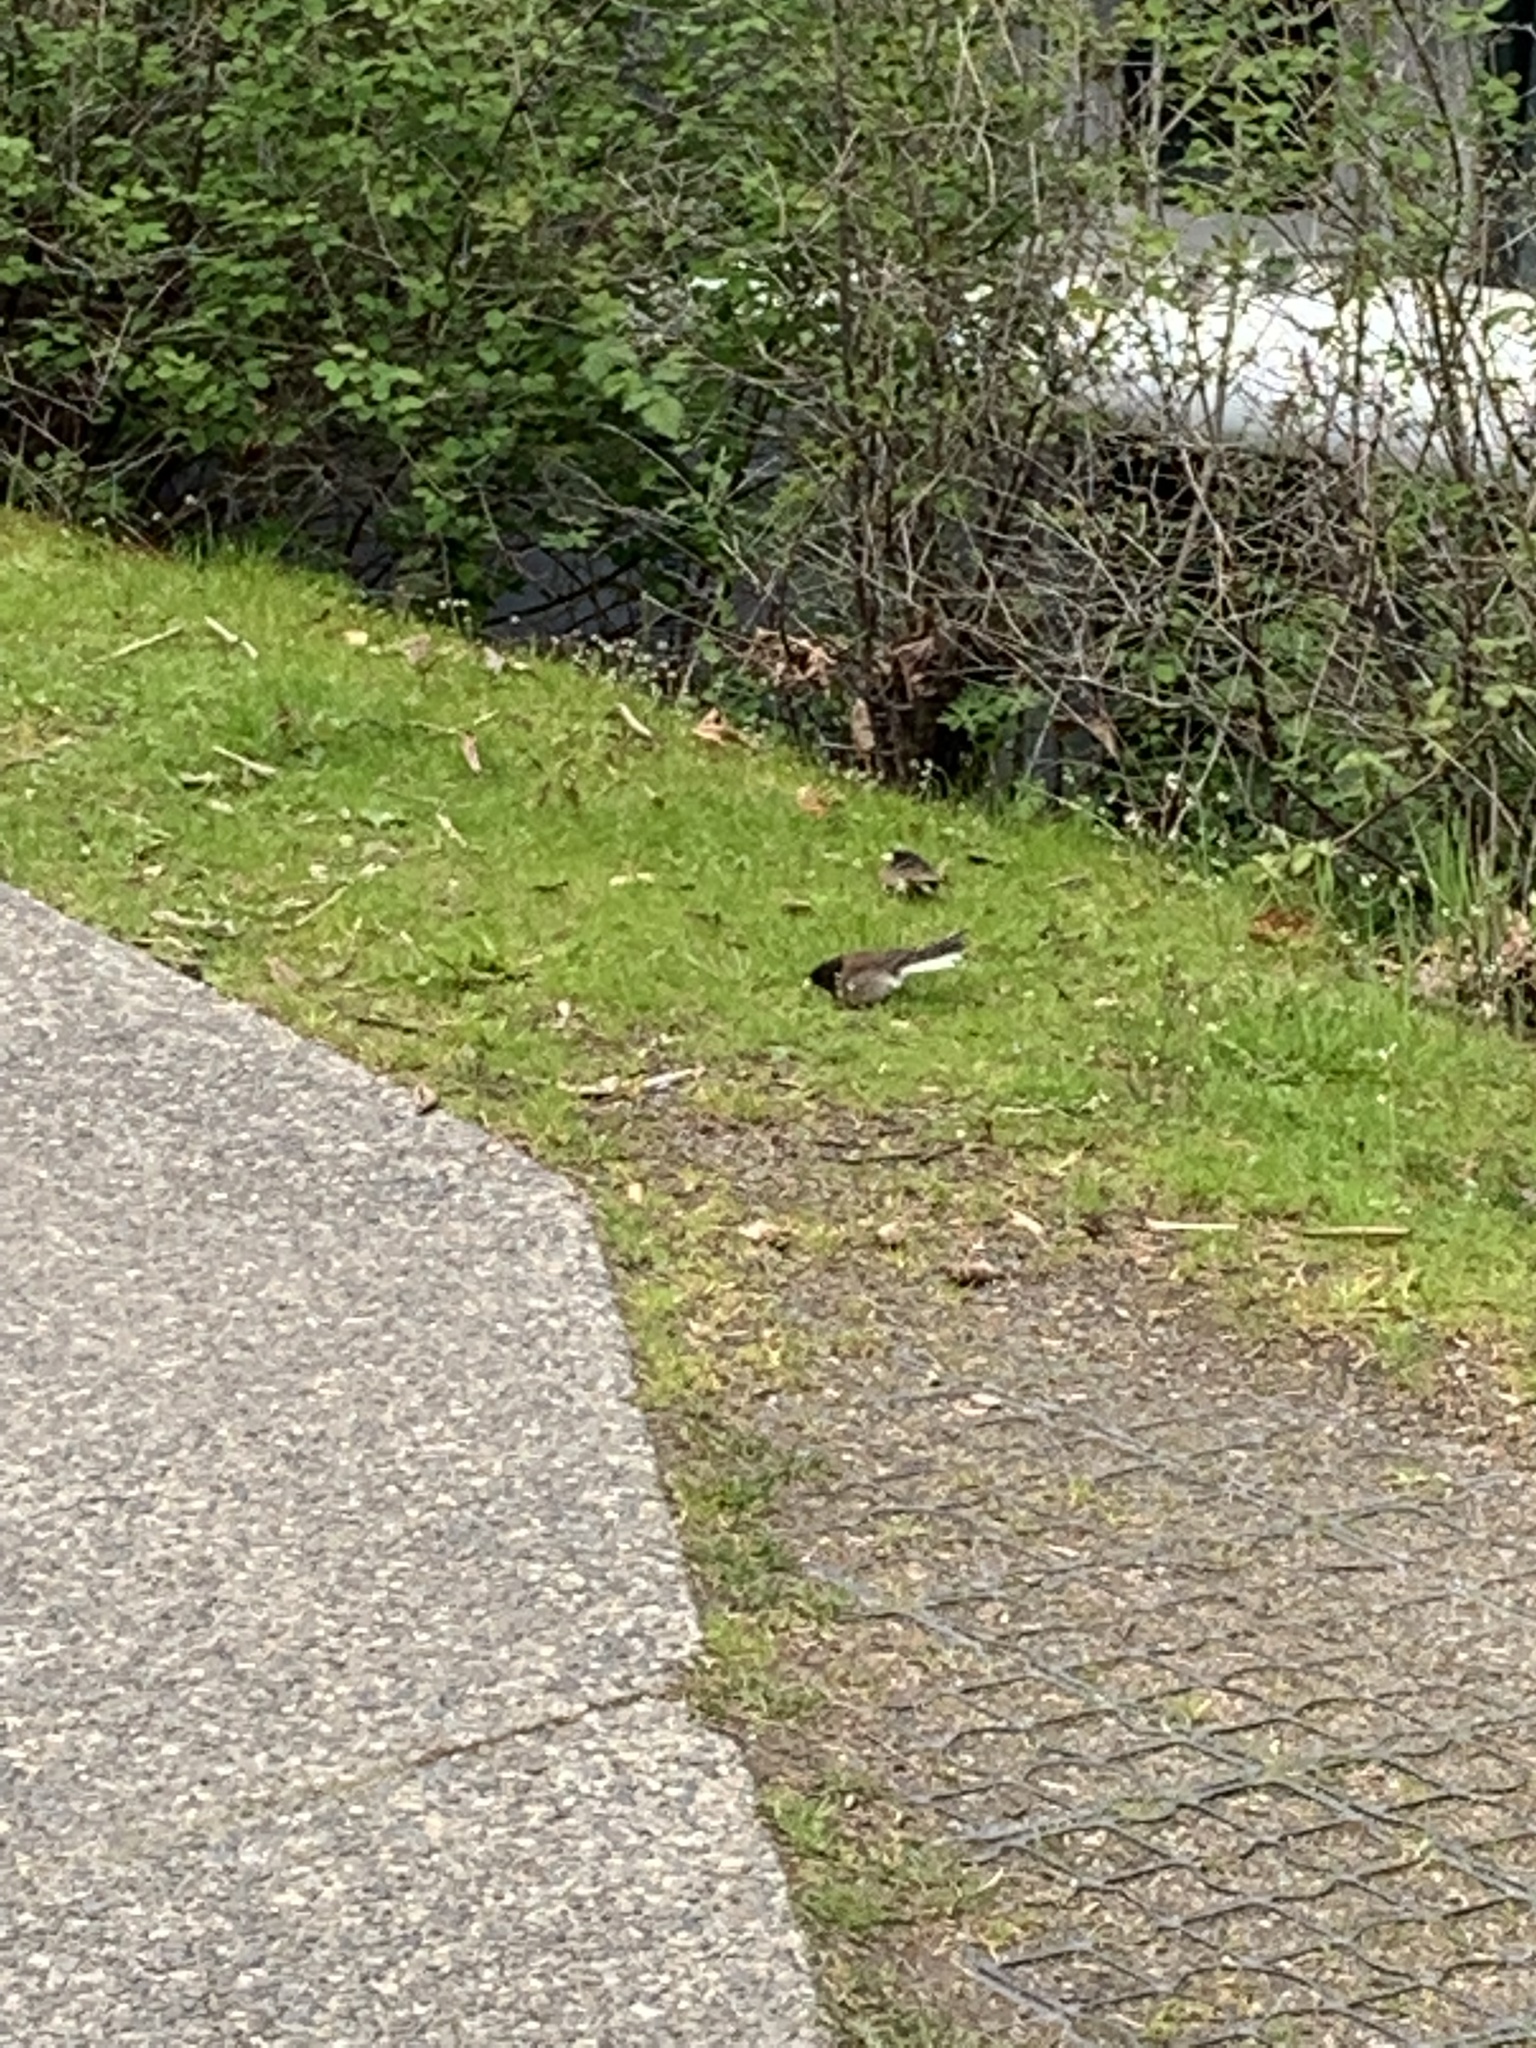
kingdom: Animalia
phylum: Chordata
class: Aves
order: Passeriformes
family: Passerellidae
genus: Junco
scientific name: Junco hyemalis
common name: Dark-eyed junco
